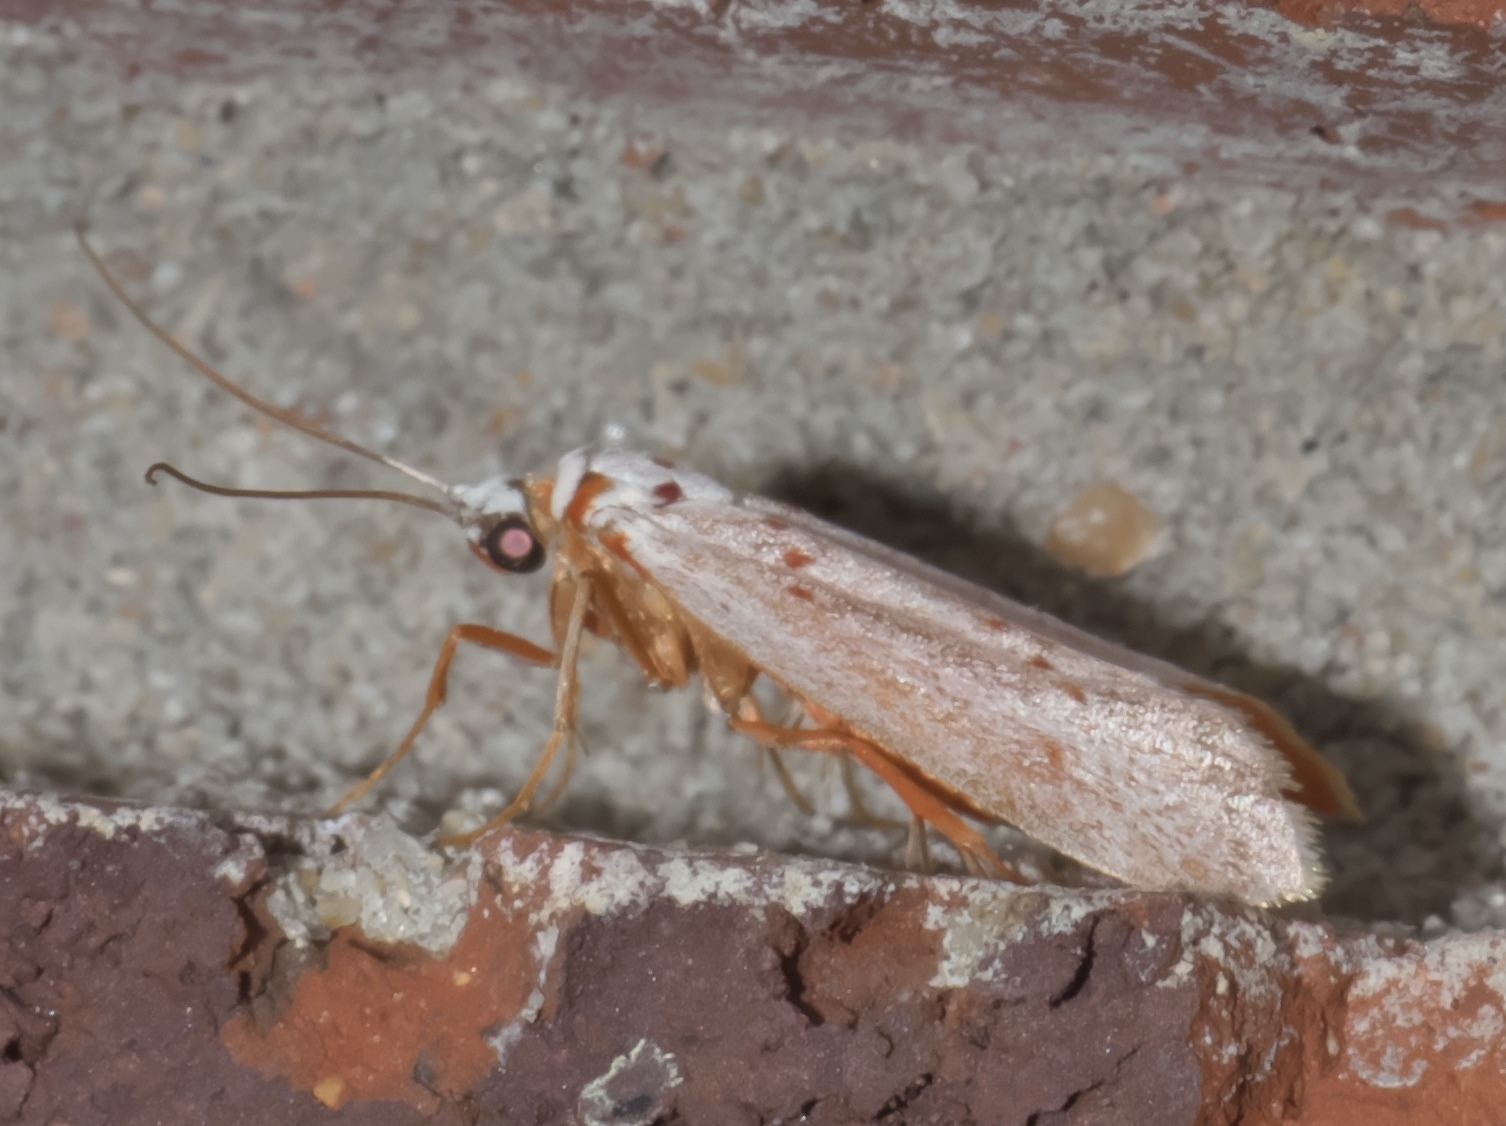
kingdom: Animalia
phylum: Arthropoda
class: Insecta
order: Lepidoptera
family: Lacturidae
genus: Lactura
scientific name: Lactura
